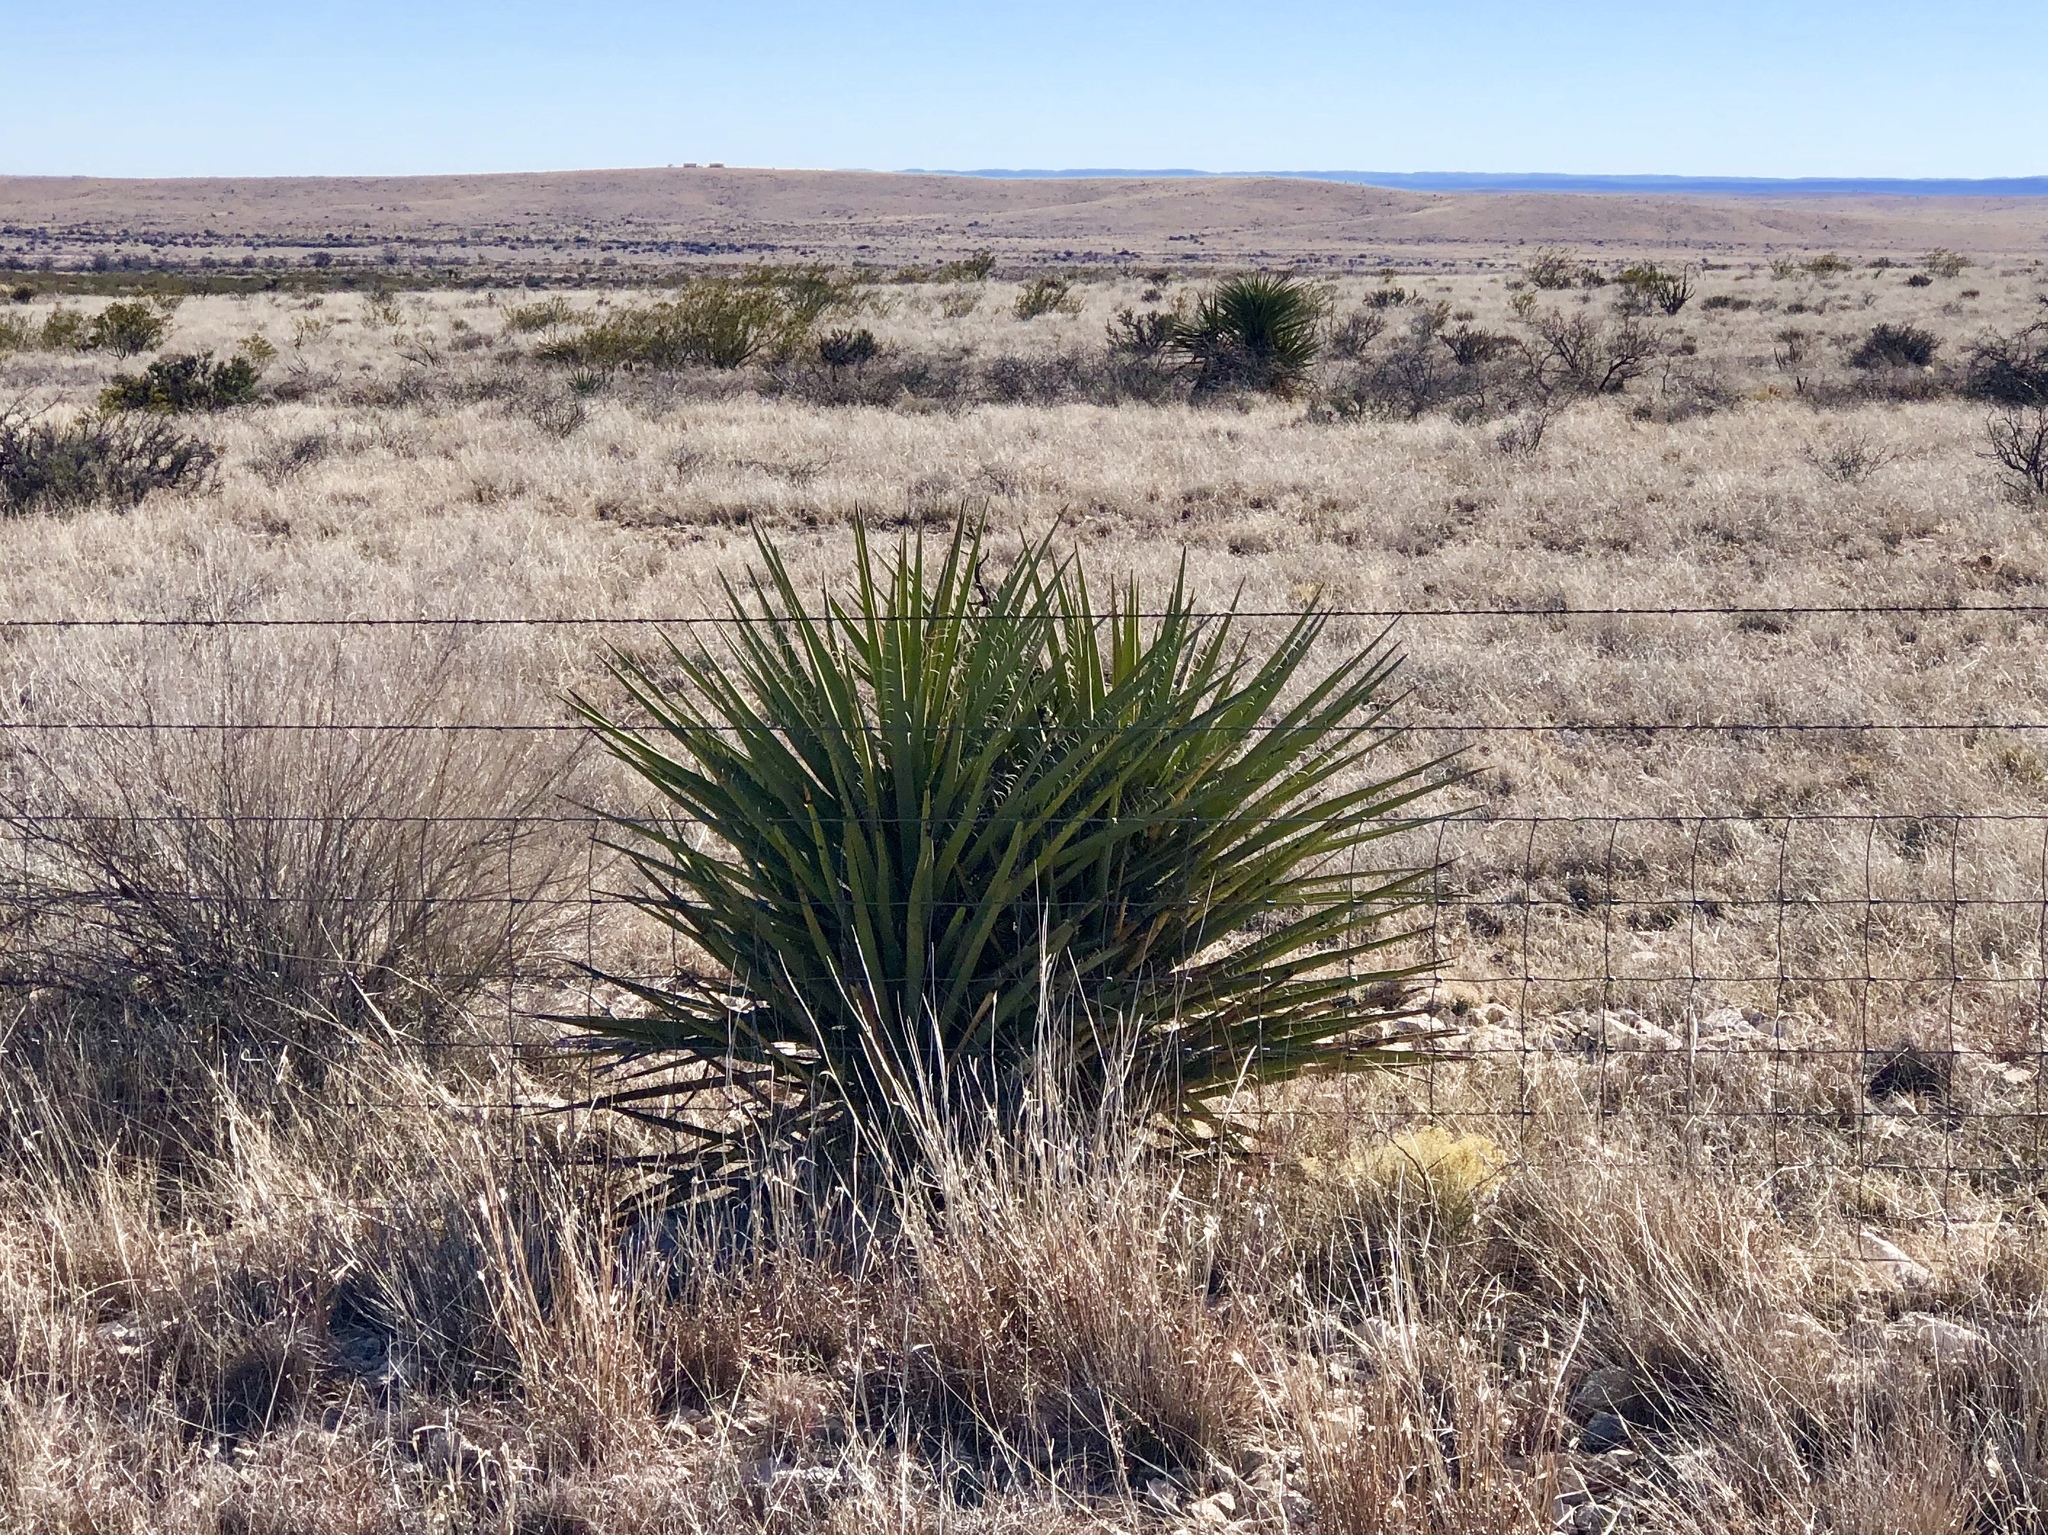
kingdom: Plantae
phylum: Tracheophyta
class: Liliopsida
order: Asparagales
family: Asparagaceae
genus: Yucca
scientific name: Yucca baccata
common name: Banana yucca
